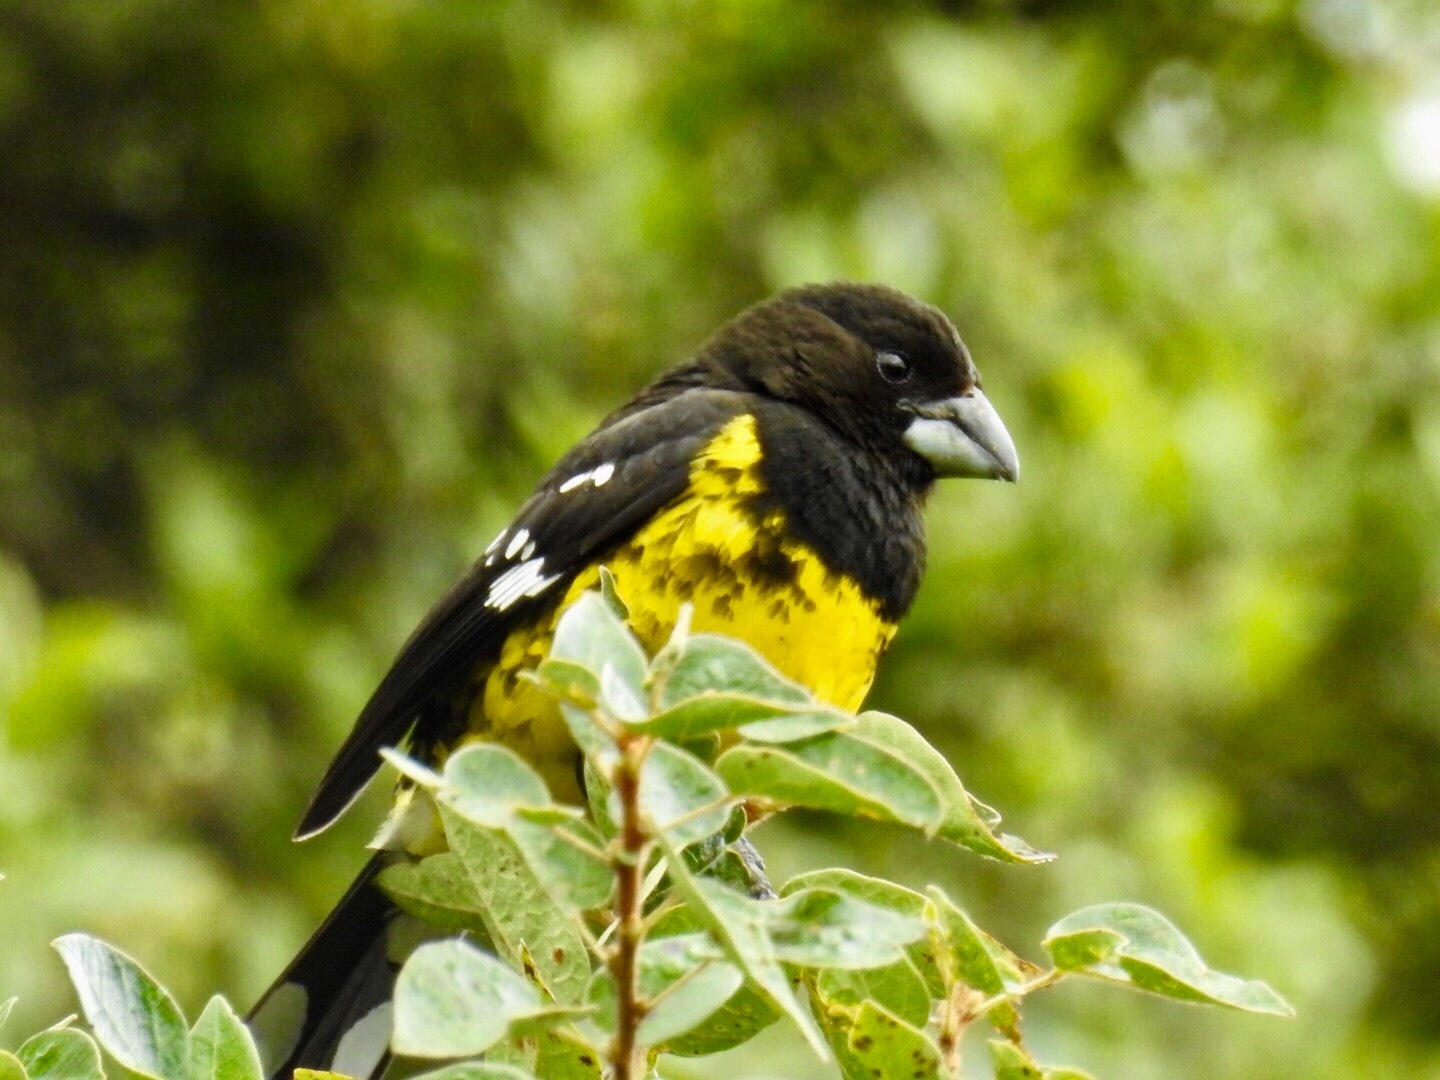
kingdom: Animalia
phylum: Chordata
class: Aves
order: Passeriformes
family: Cardinalidae
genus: Pheucticus
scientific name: Pheucticus aureoventris
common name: Black-backed grosbeak
